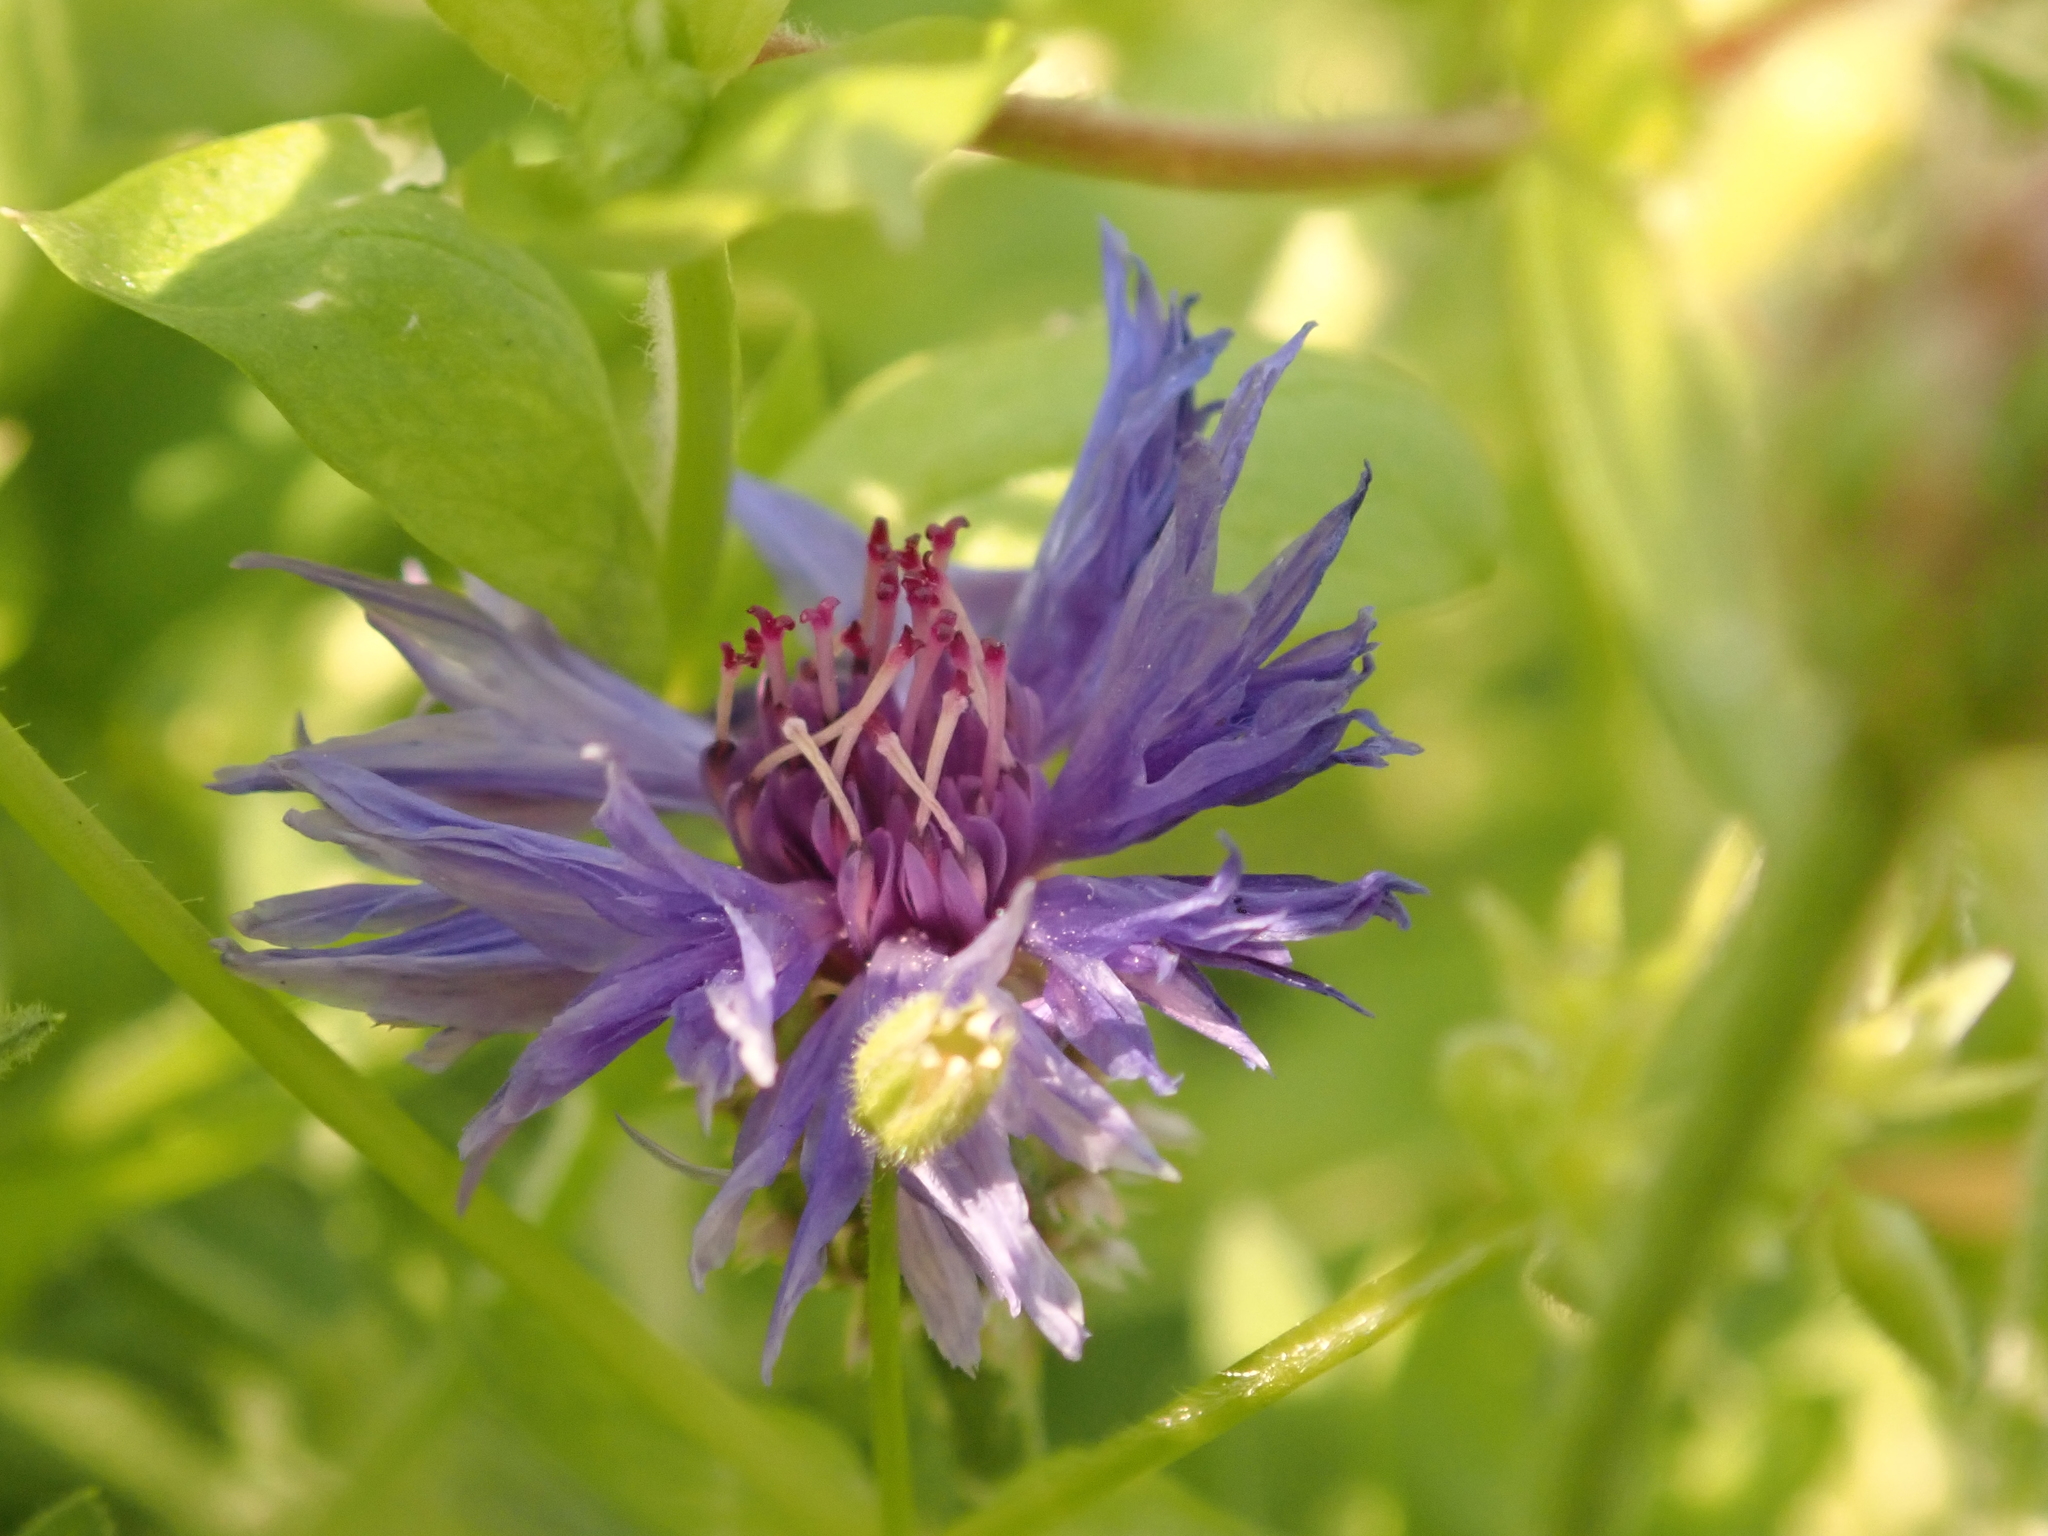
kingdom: Plantae
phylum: Tracheophyta
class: Magnoliopsida
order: Asterales
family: Asteraceae
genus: Centaurea
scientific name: Centaurea cyanus
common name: Cornflower
